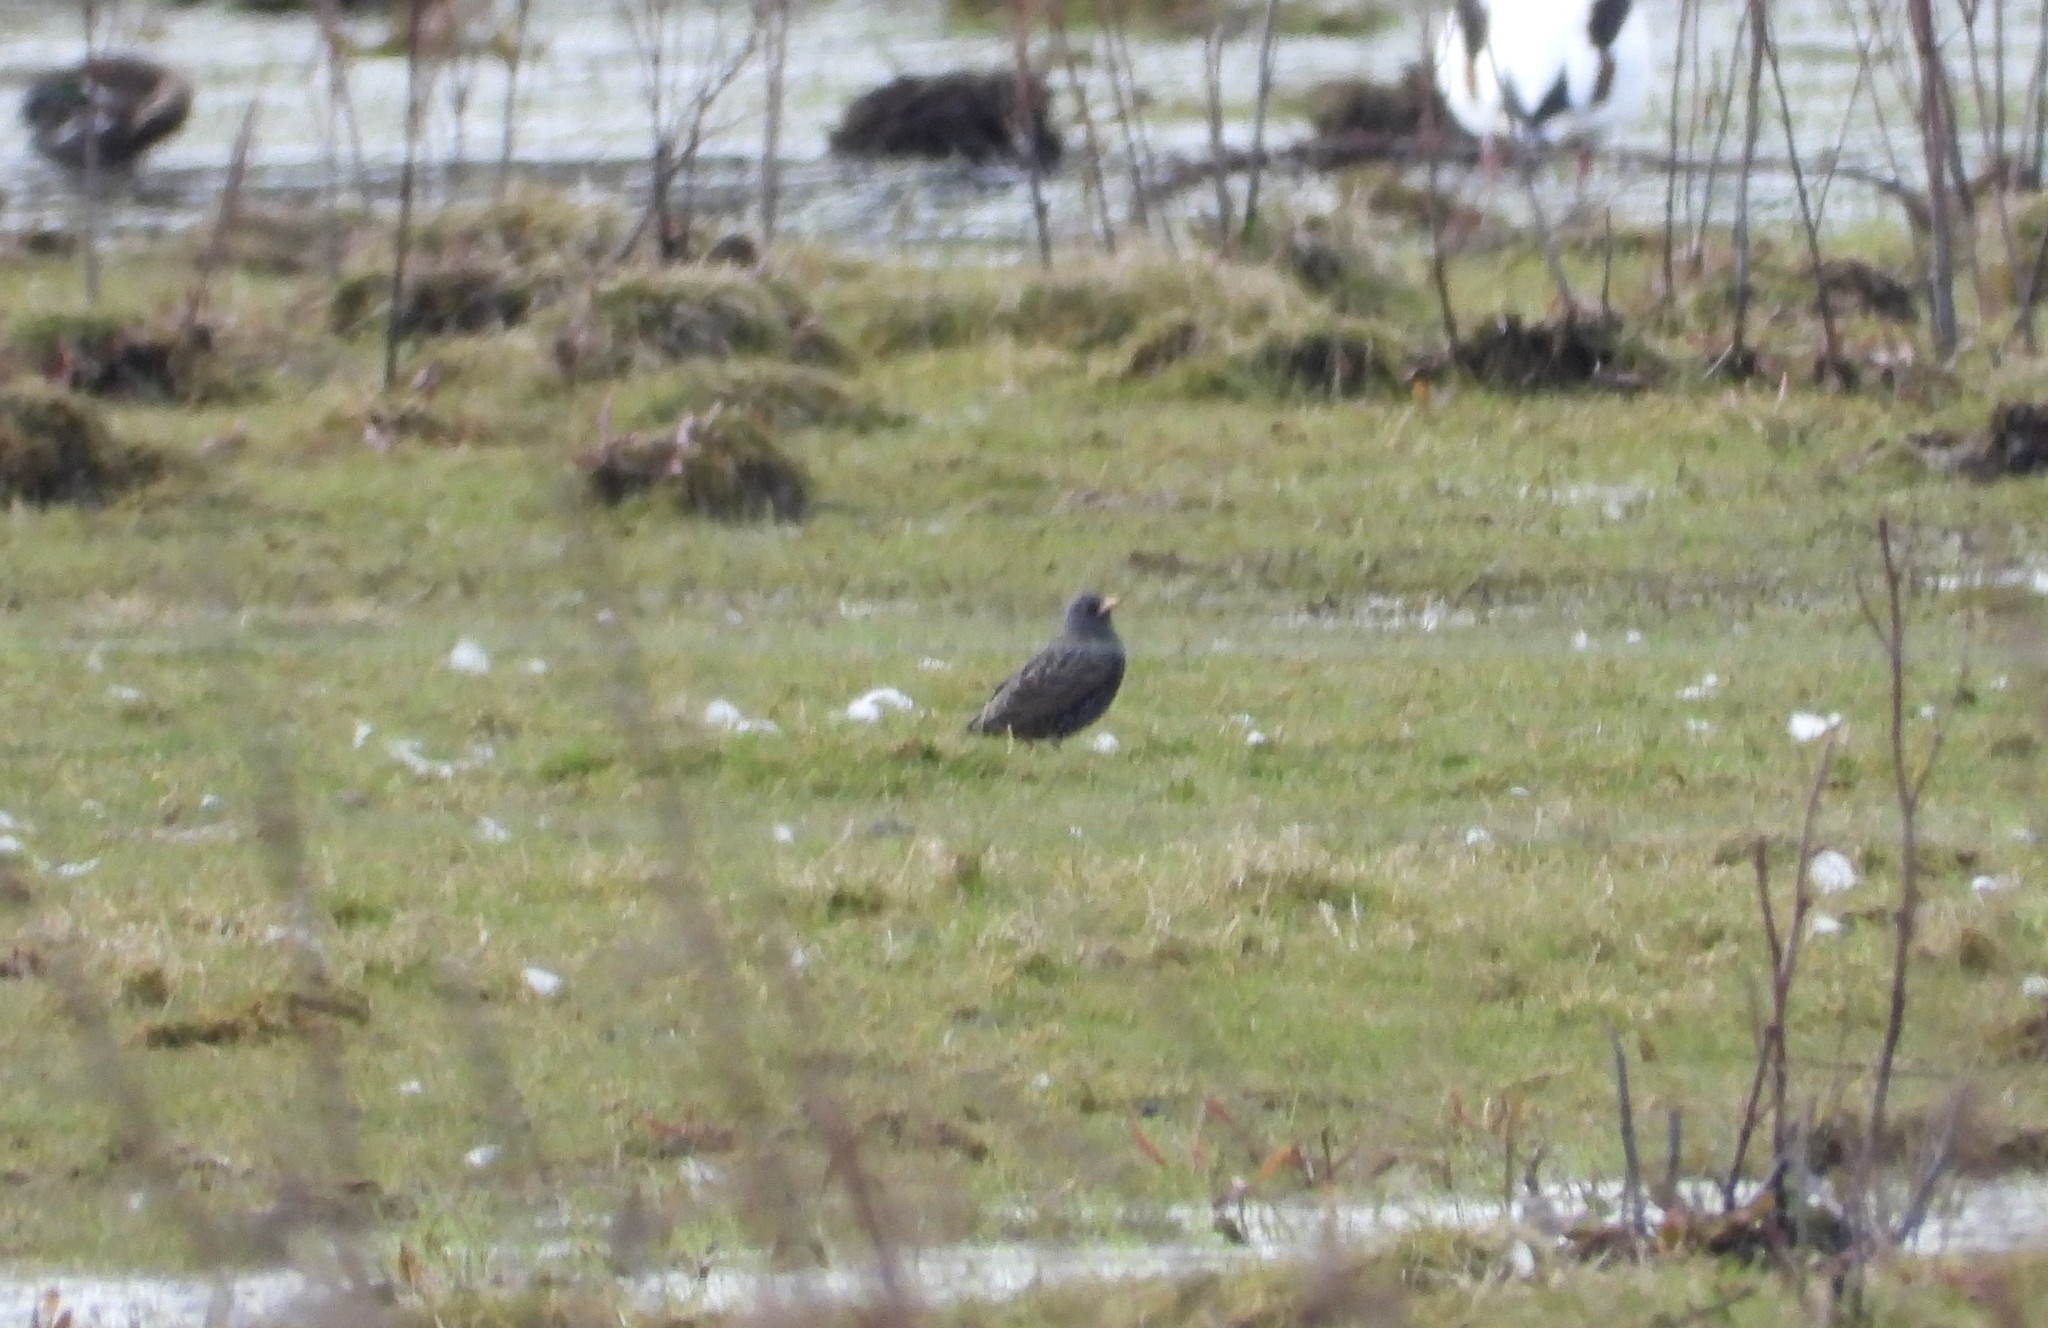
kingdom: Animalia
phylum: Chordata
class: Aves
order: Passeriformes
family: Sturnidae
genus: Sturnus
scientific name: Sturnus vulgaris
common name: Common starling
